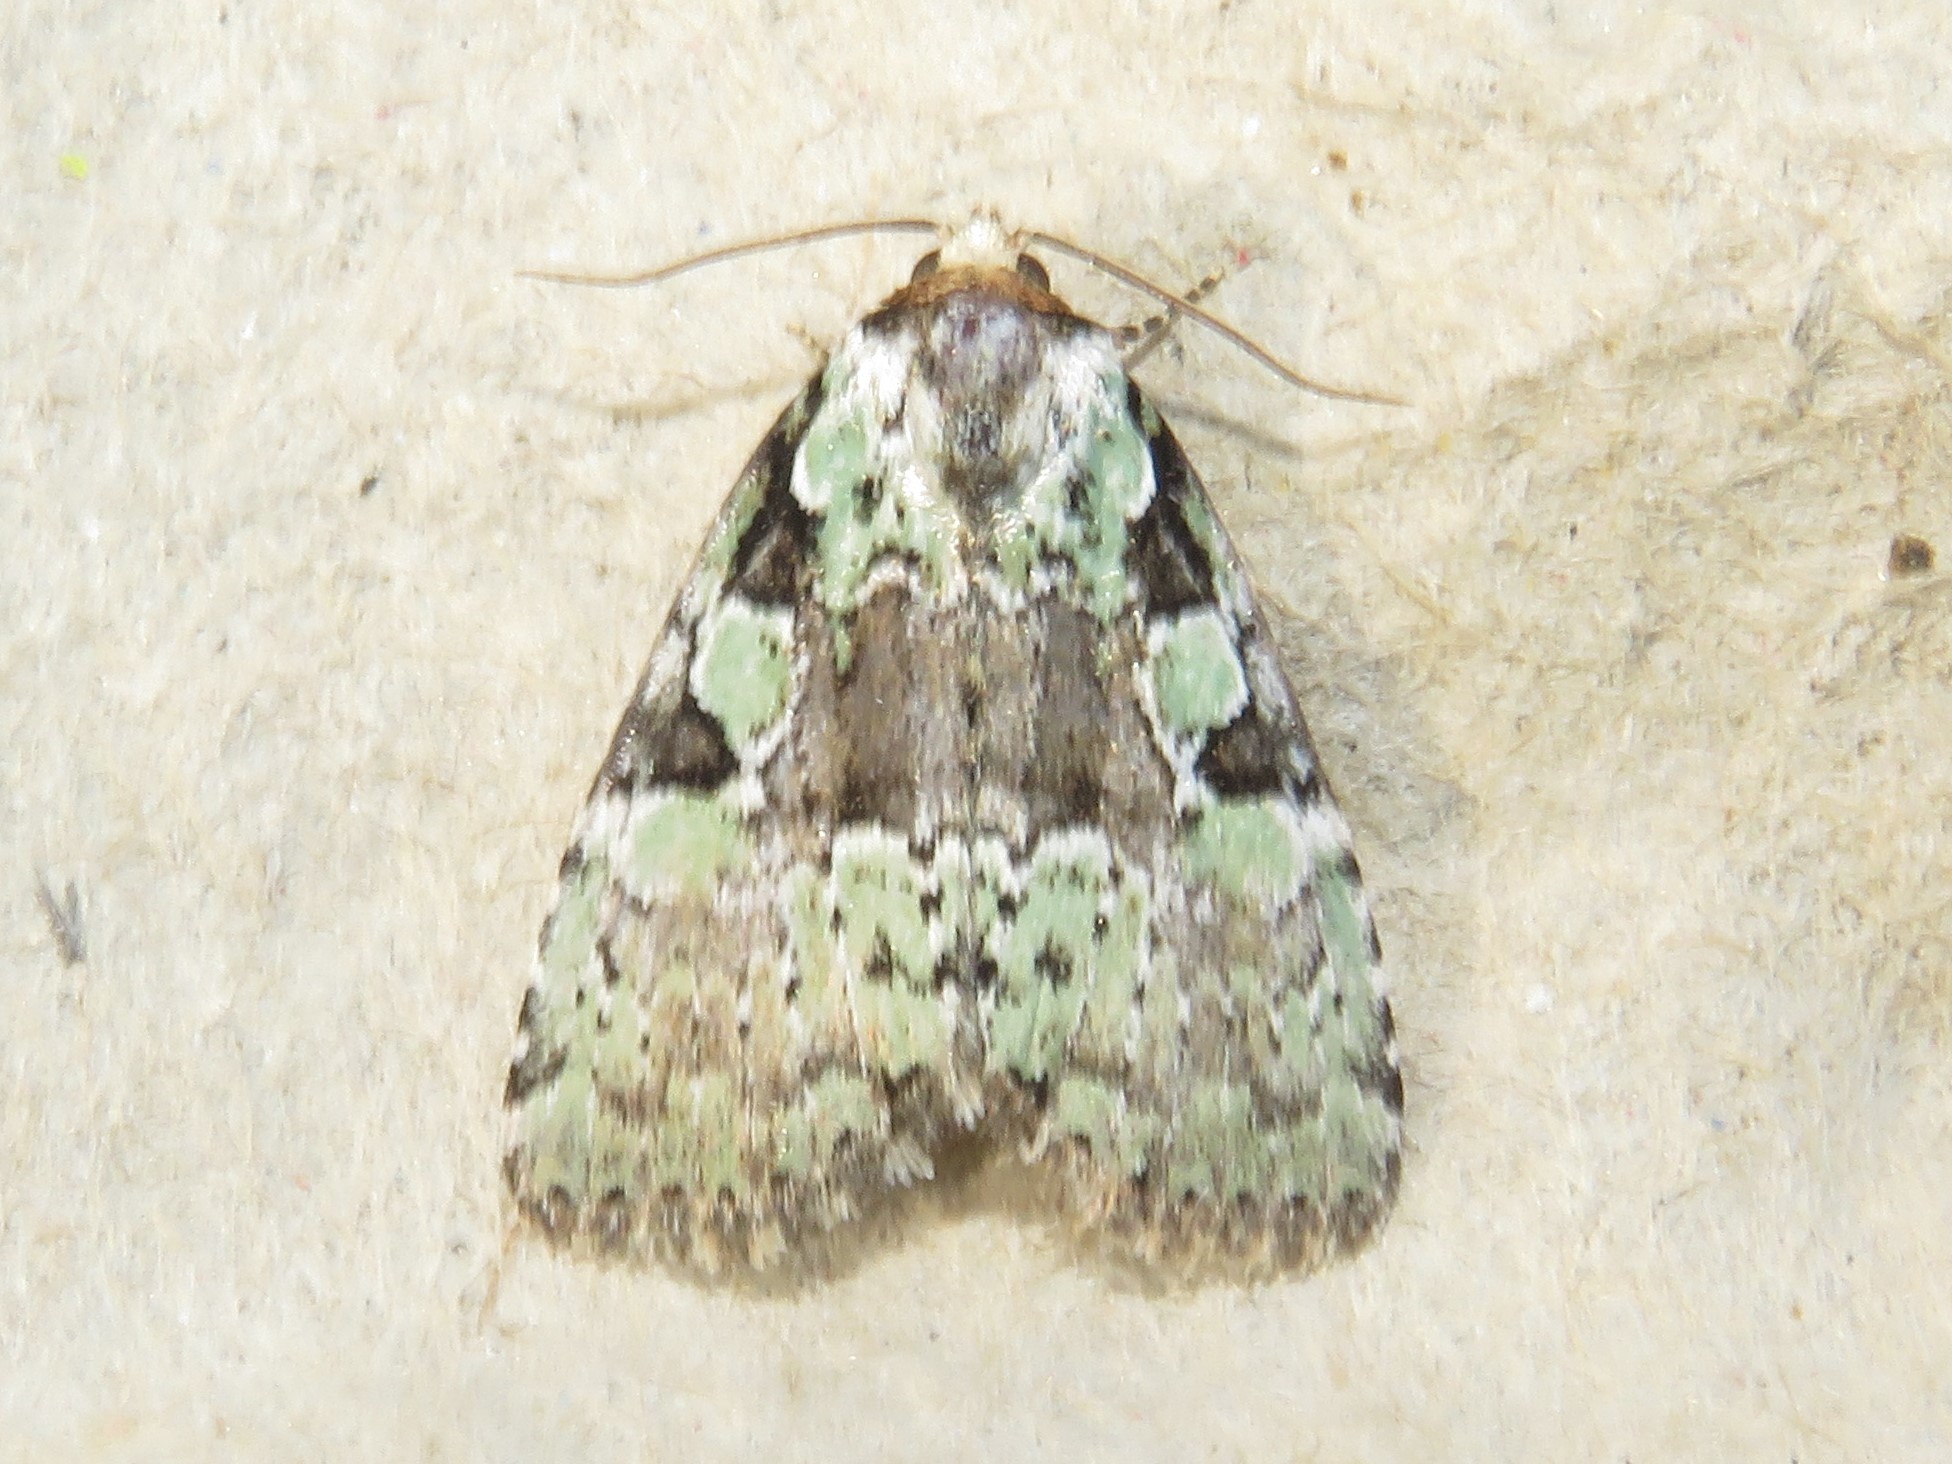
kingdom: Animalia
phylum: Arthropoda
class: Insecta
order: Lepidoptera
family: Noctuidae
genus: Leuconycta
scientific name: Leuconycta lepidula
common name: Marbled-green leuconycta moth
